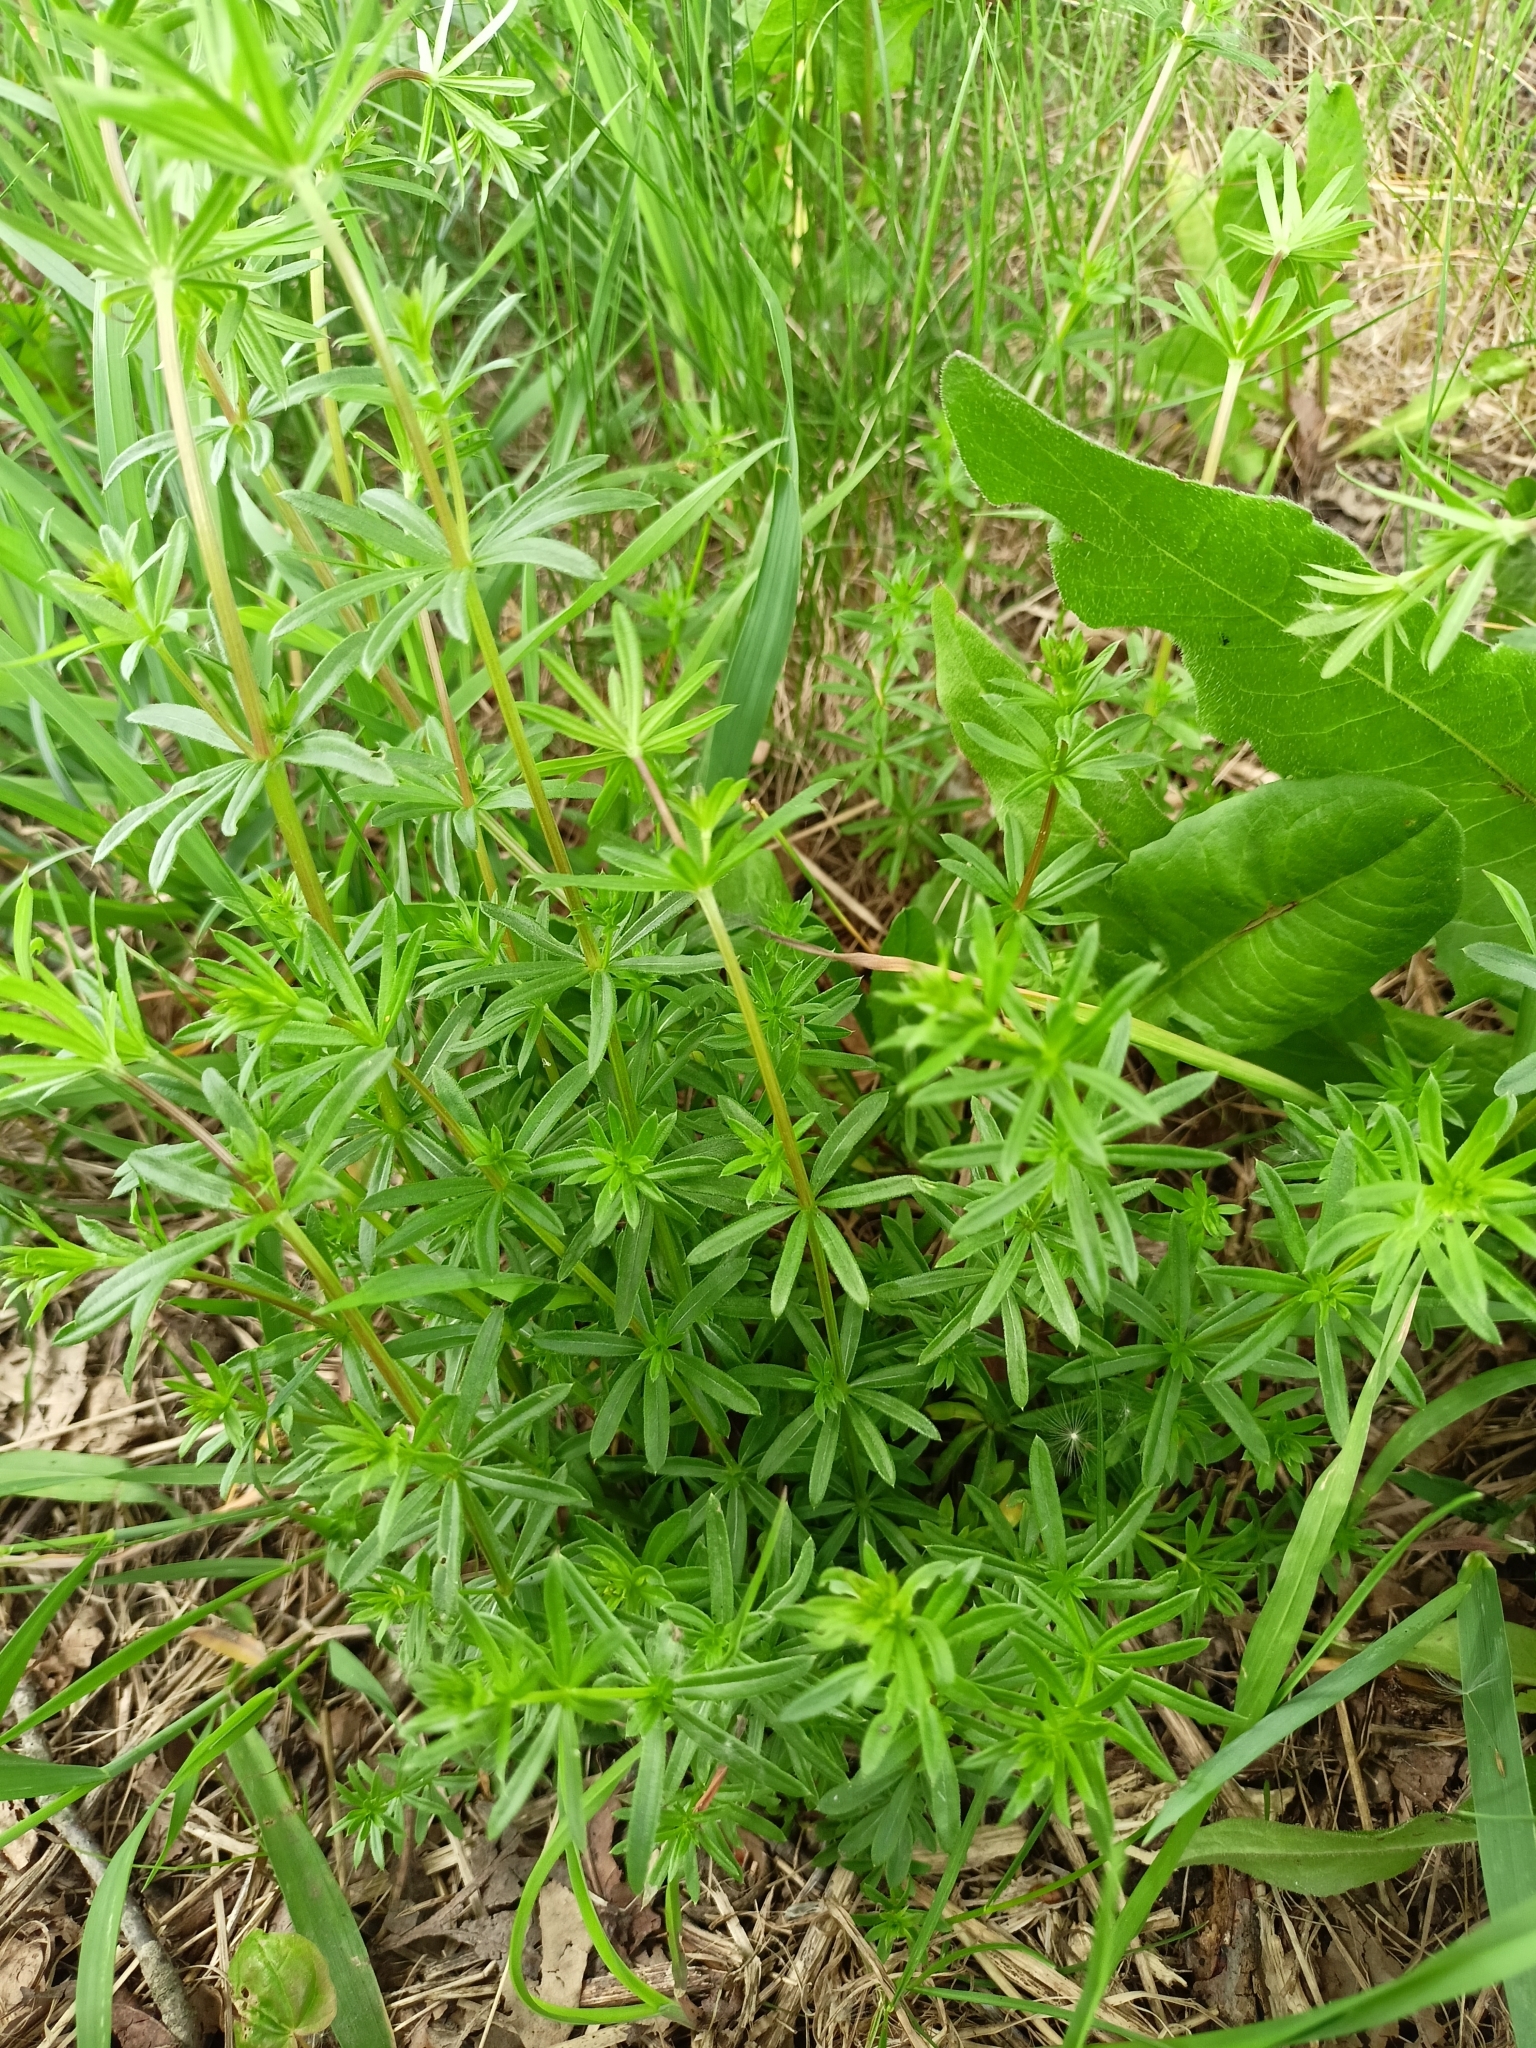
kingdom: Plantae
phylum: Tracheophyta
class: Magnoliopsida
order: Gentianales
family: Rubiaceae
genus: Galium
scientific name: Galium mollugo
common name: Hedge bedstraw
